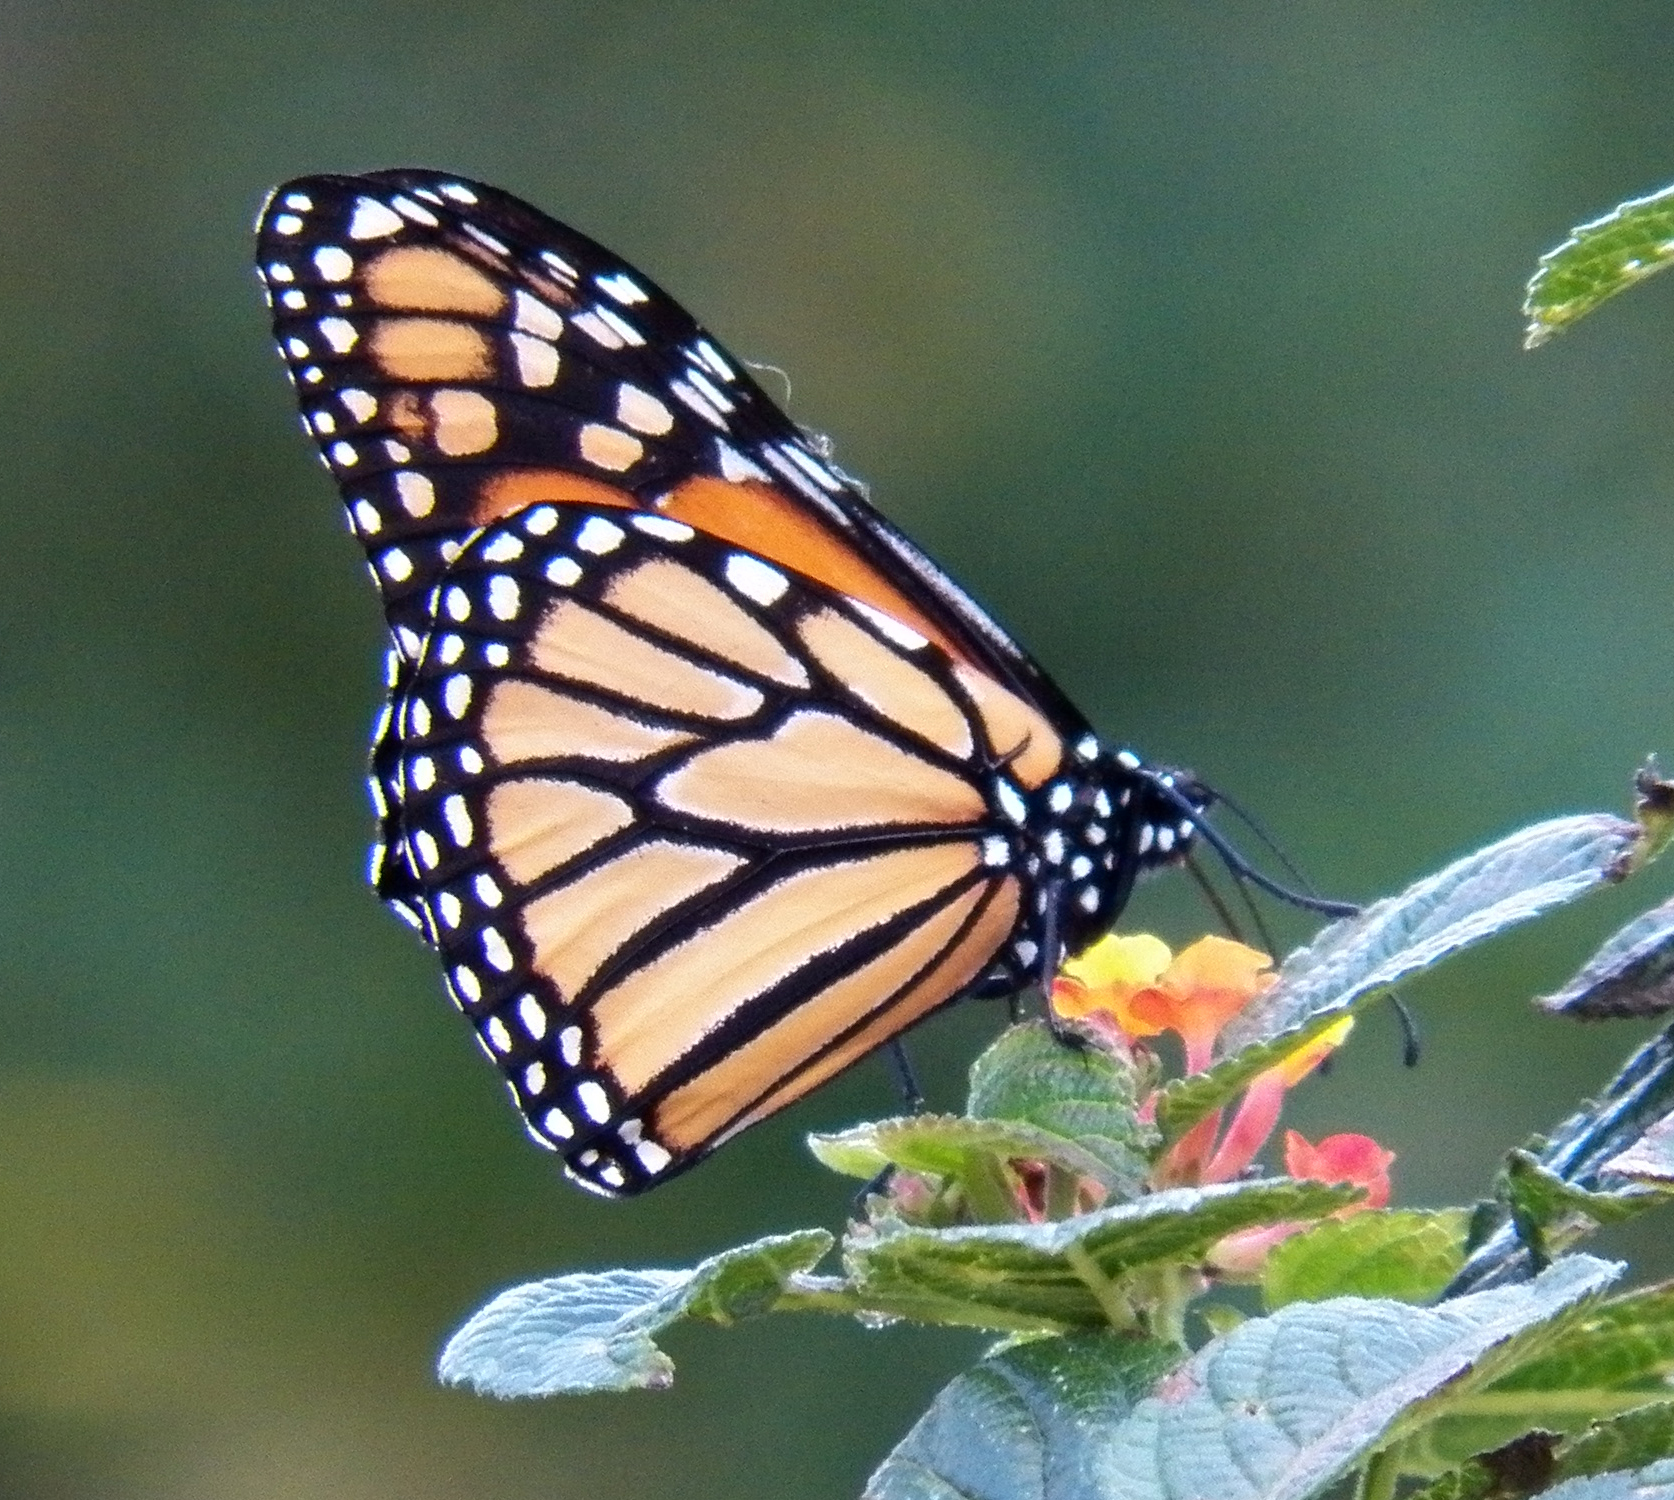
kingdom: Animalia
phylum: Arthropoda
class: Insecta
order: Lepidoptera
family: Nymphalidae
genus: Danaus
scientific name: Danaus plexippus
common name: Monarch
